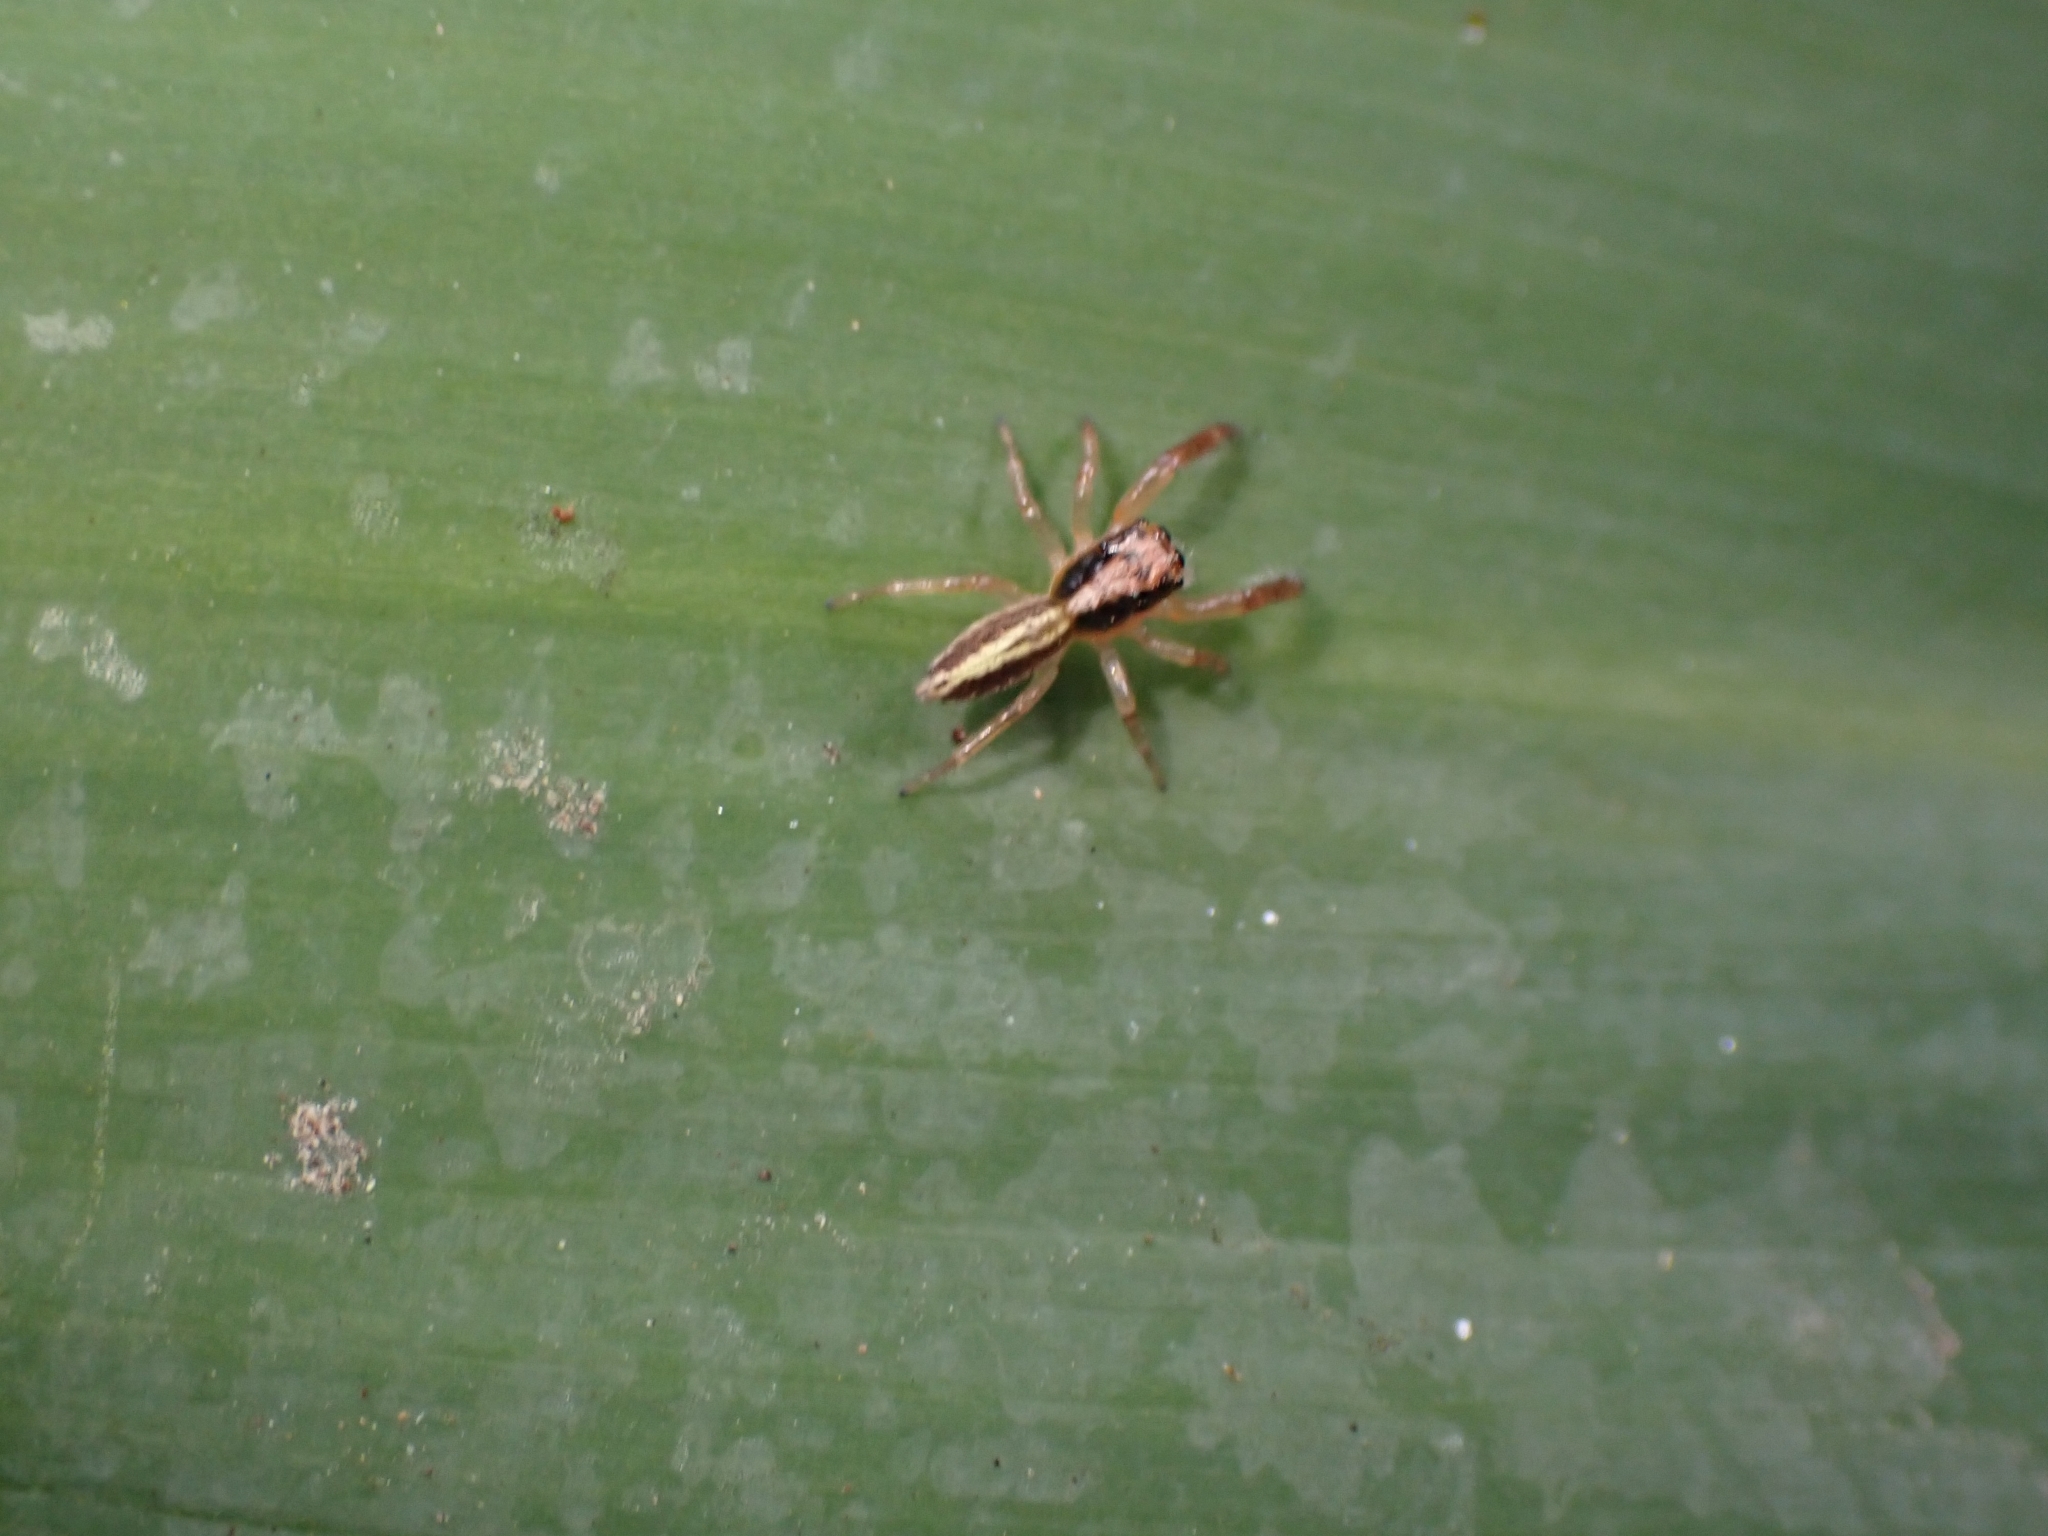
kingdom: Animalia
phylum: Arthropoda
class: Arachnida
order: Araneae
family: Salticidae
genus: Trite
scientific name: Trite planiceps
